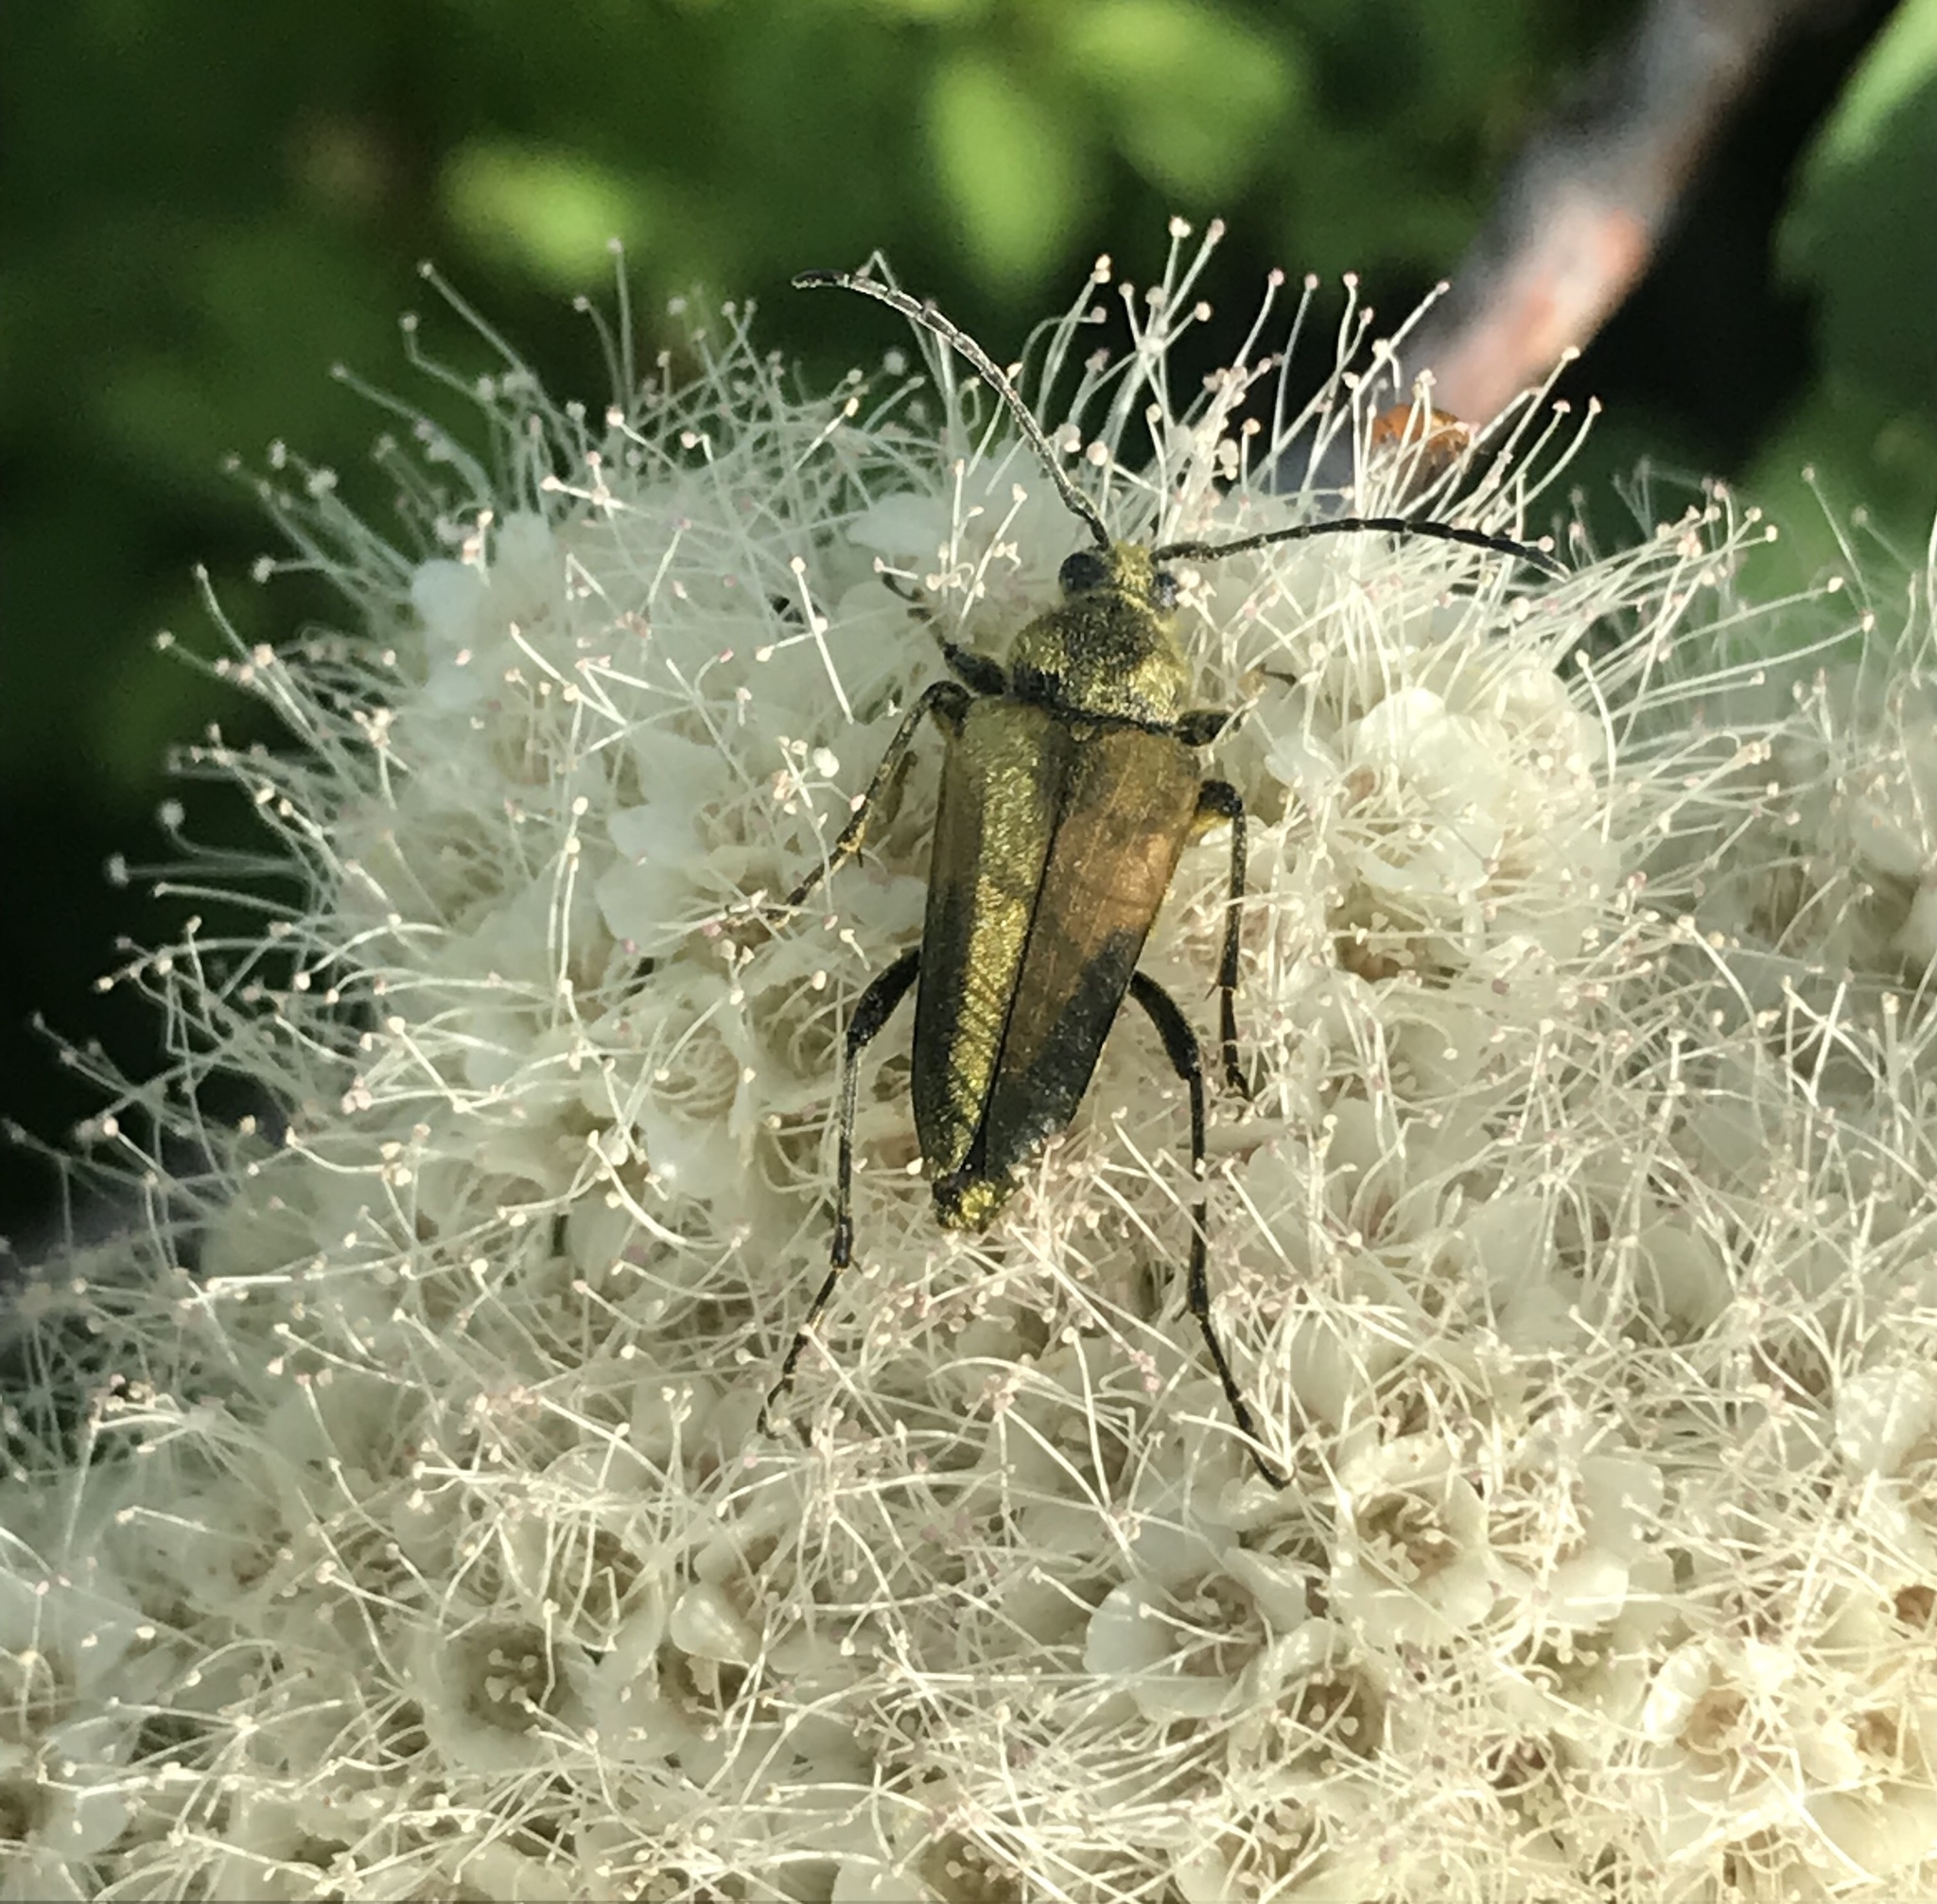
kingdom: Animalia
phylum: Arthropoda
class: Insecta
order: Coleoptera
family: Cerambycidae
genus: Cosmosalia
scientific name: Cosmosalia chrysocoma
